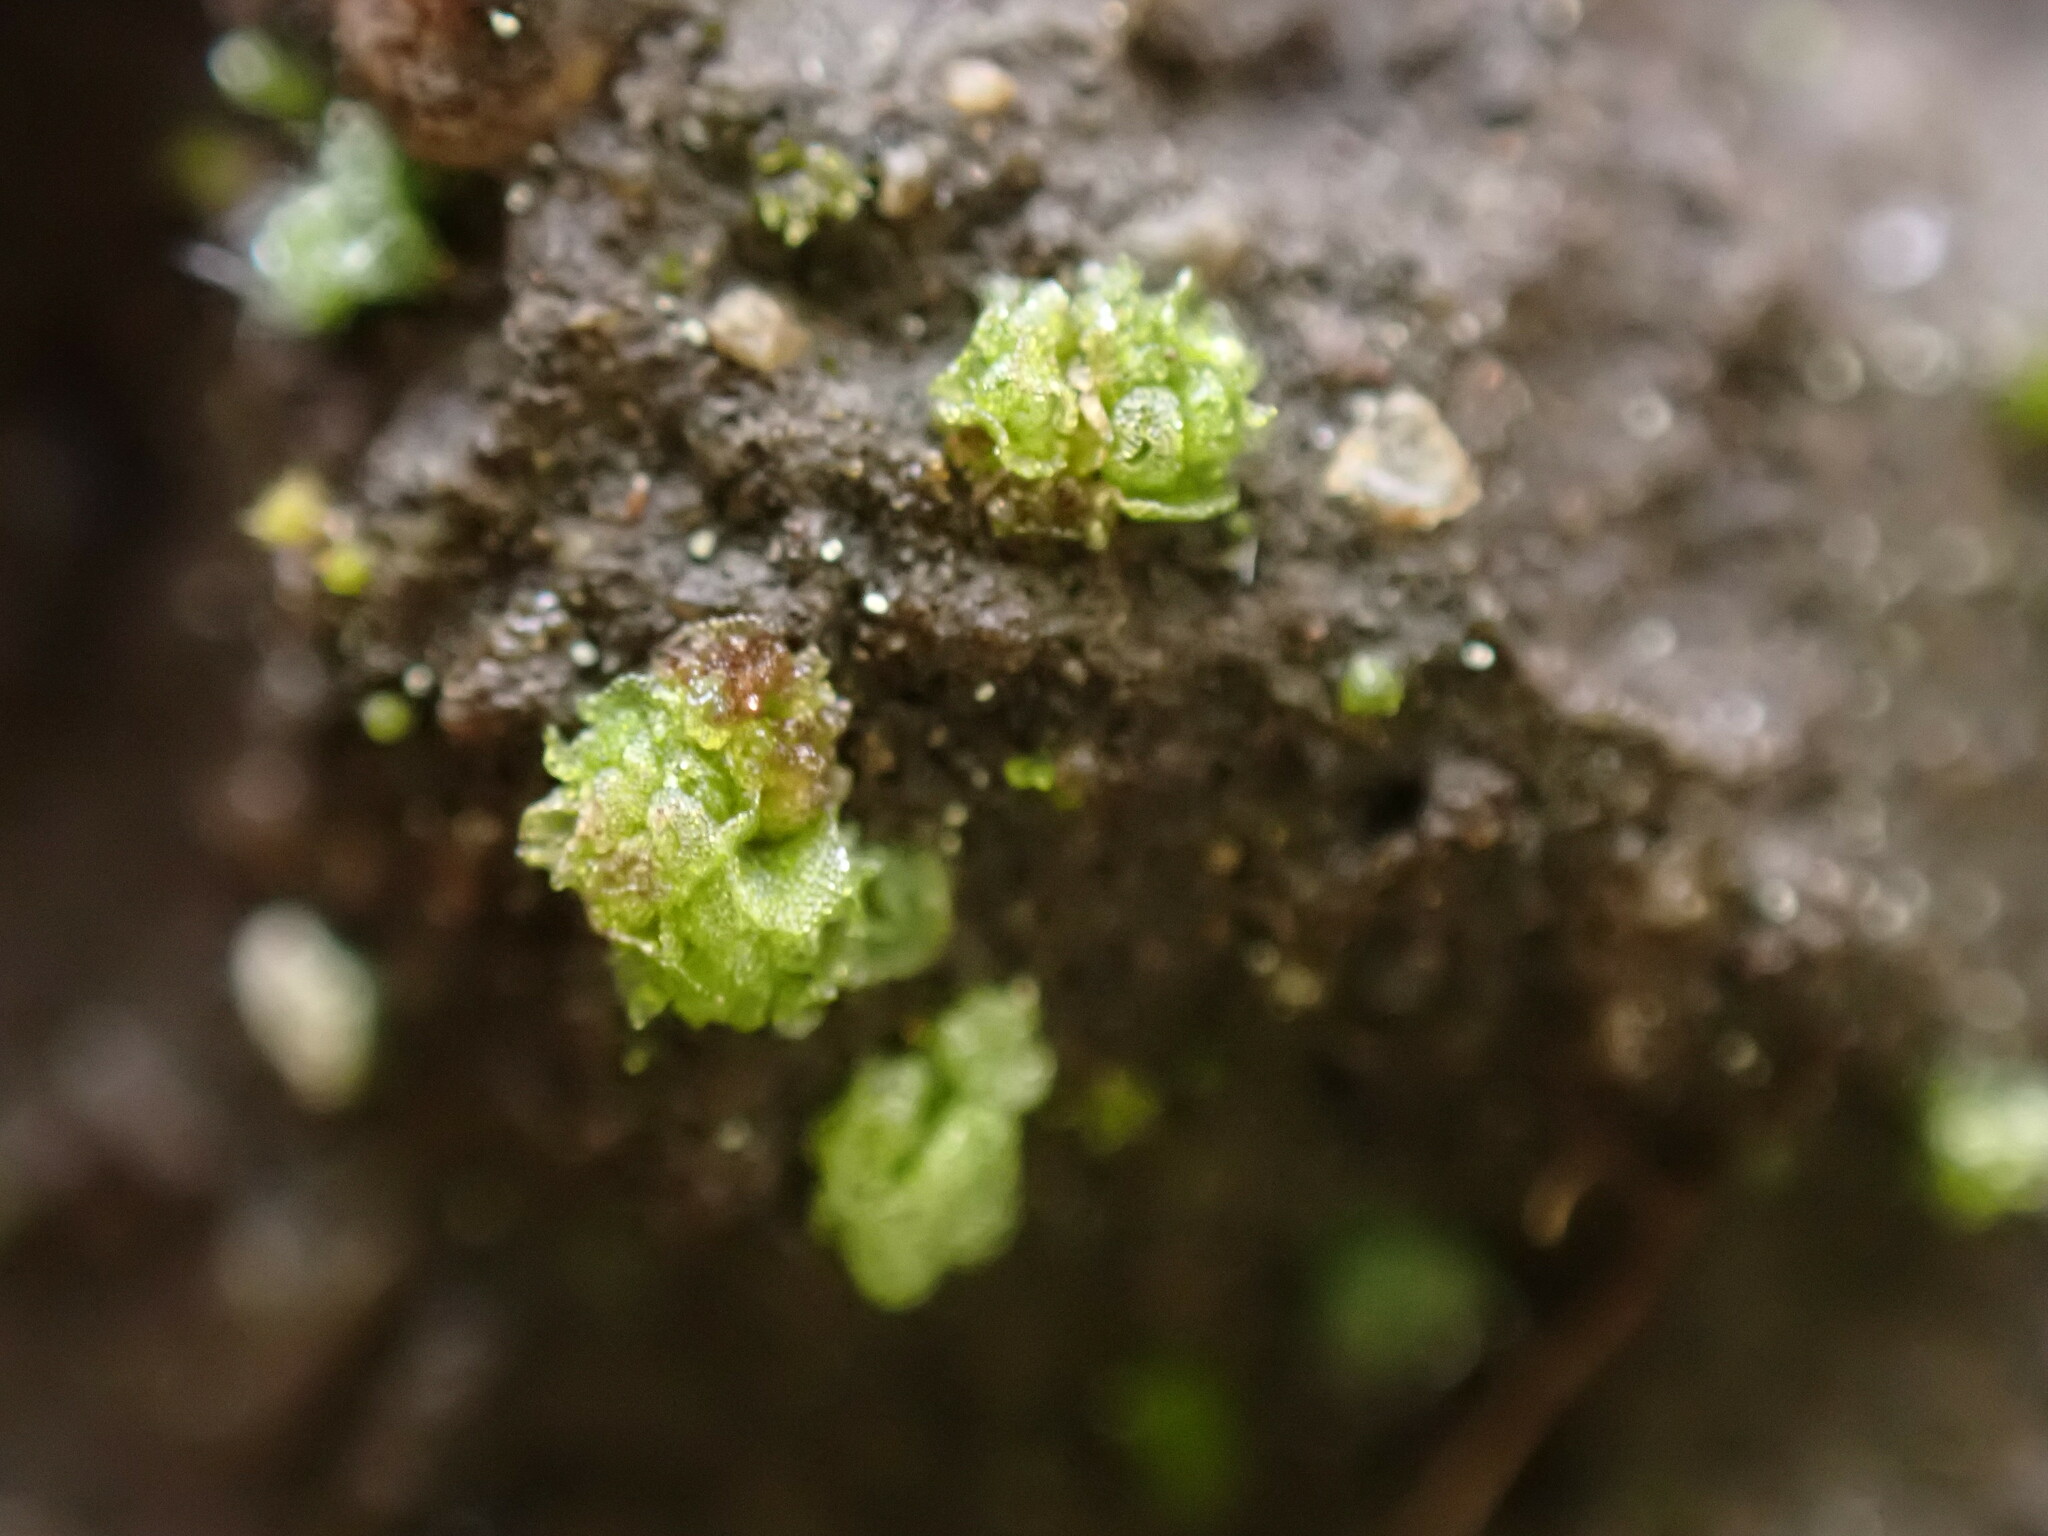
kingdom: Plantae
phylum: Marchantiophyta
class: Marchantiopsida
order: Sphaerocarpales
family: Sphaerocarpaceae
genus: Sphaerocarpos
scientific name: Sphaerocarpos texanus
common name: Texas balloonwort
